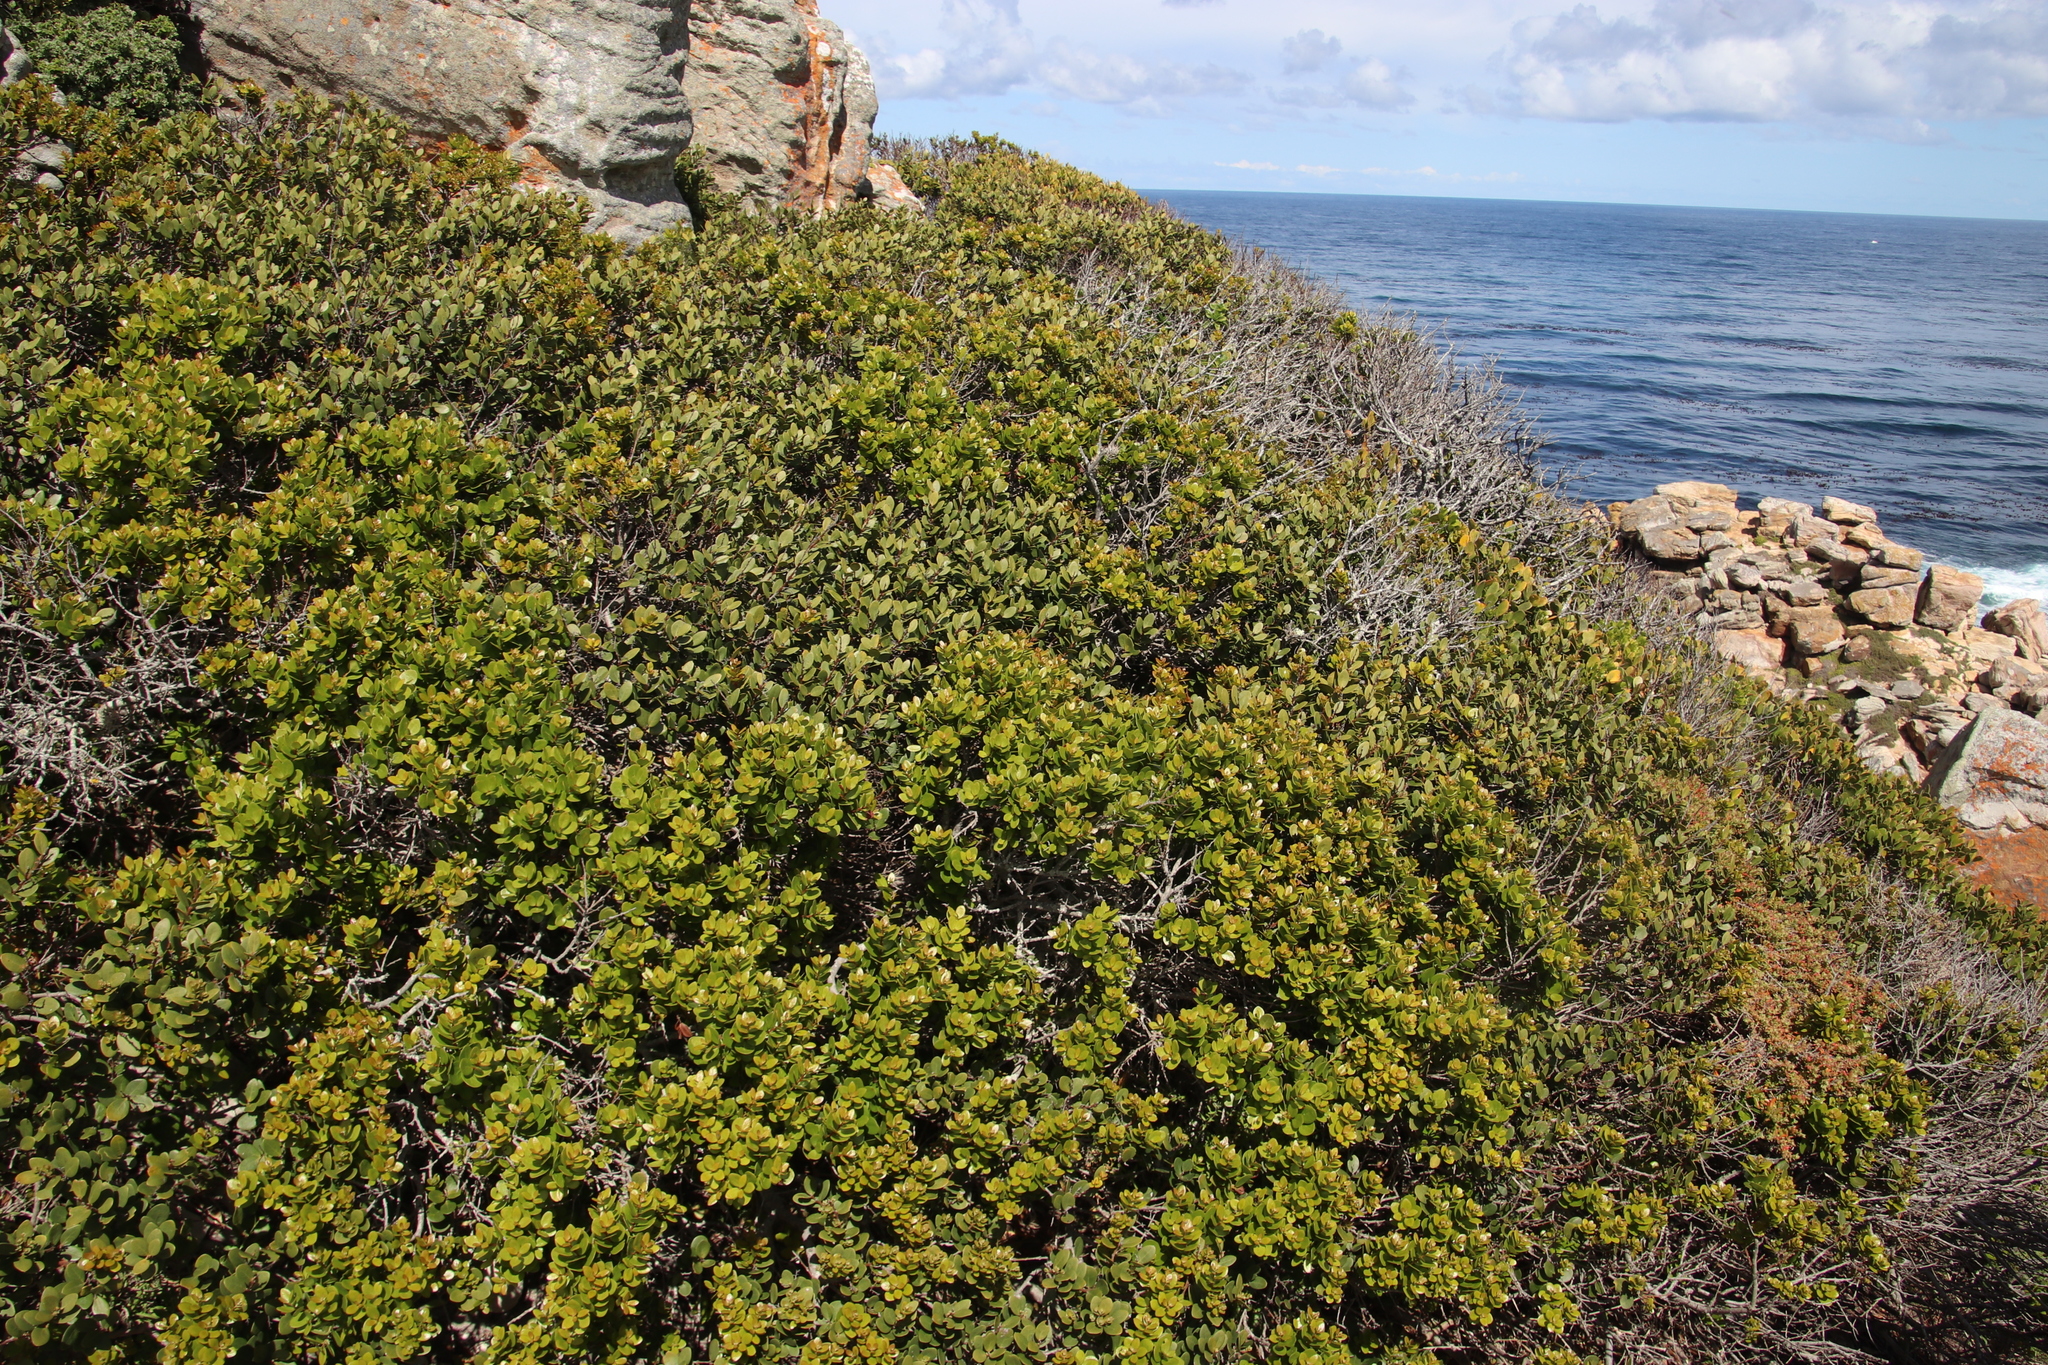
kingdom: Plantae
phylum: Tracheophyta
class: Magnoliopsida
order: Ericales
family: Ebenaceae
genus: Euclea
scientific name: Euclea racemosa
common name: Dune guarri
